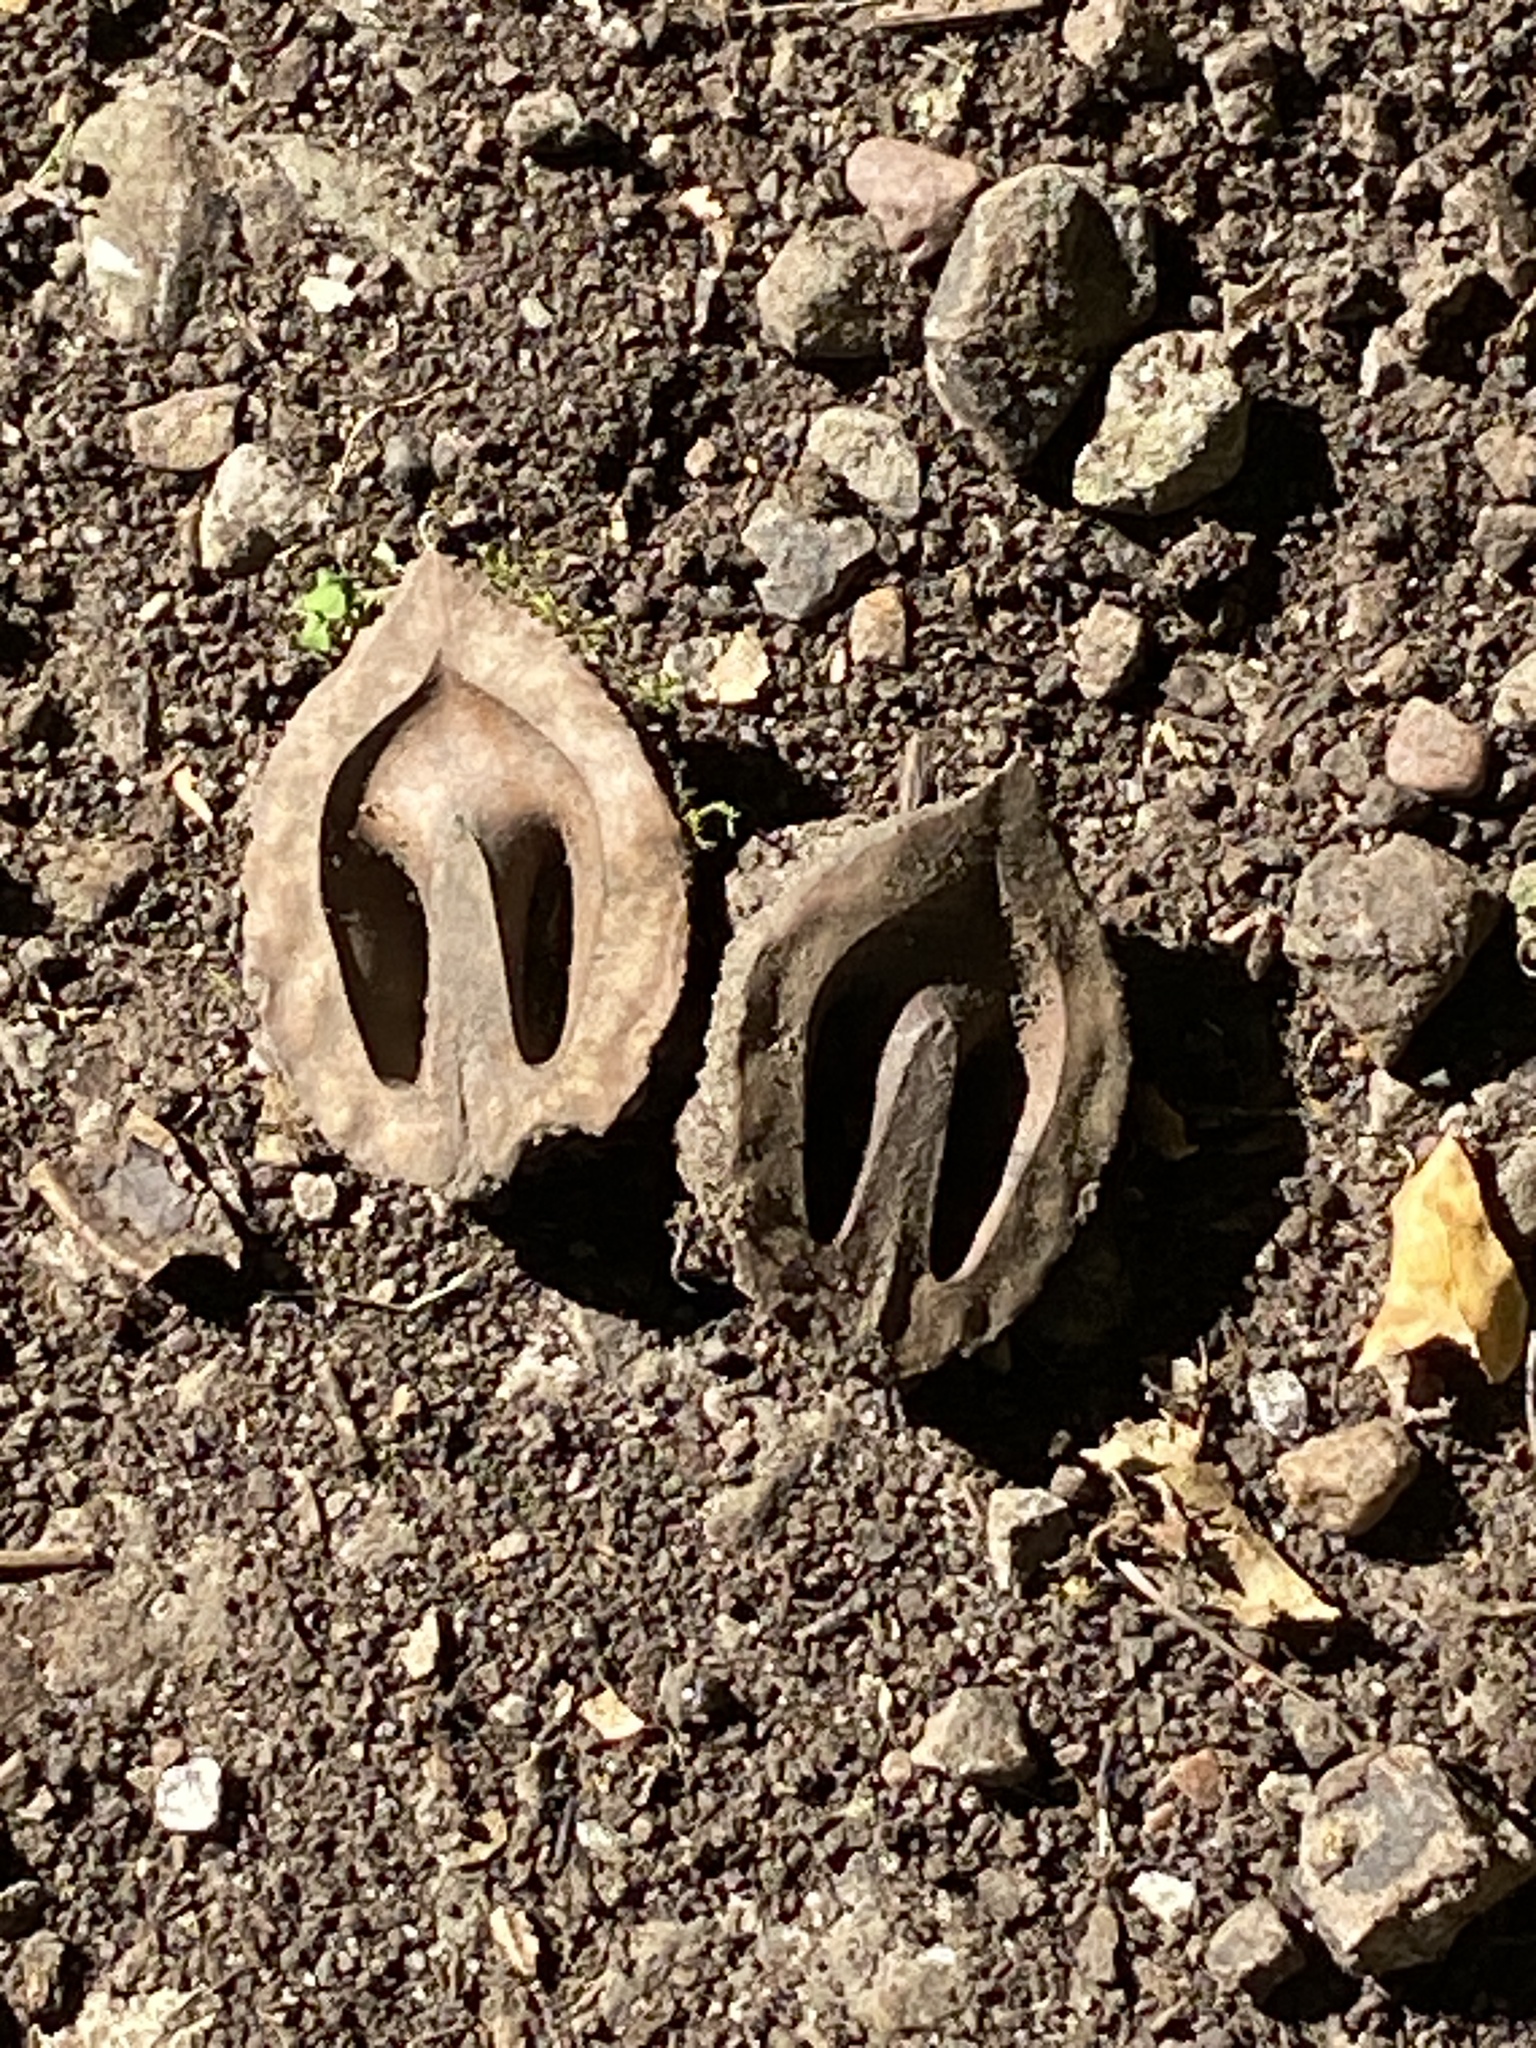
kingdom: Plantae
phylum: Tracheophyta
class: Magnoliopsida
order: Fagales
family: Juglandaceae
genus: Juglans
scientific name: Juglans nigra
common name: Black walnut
